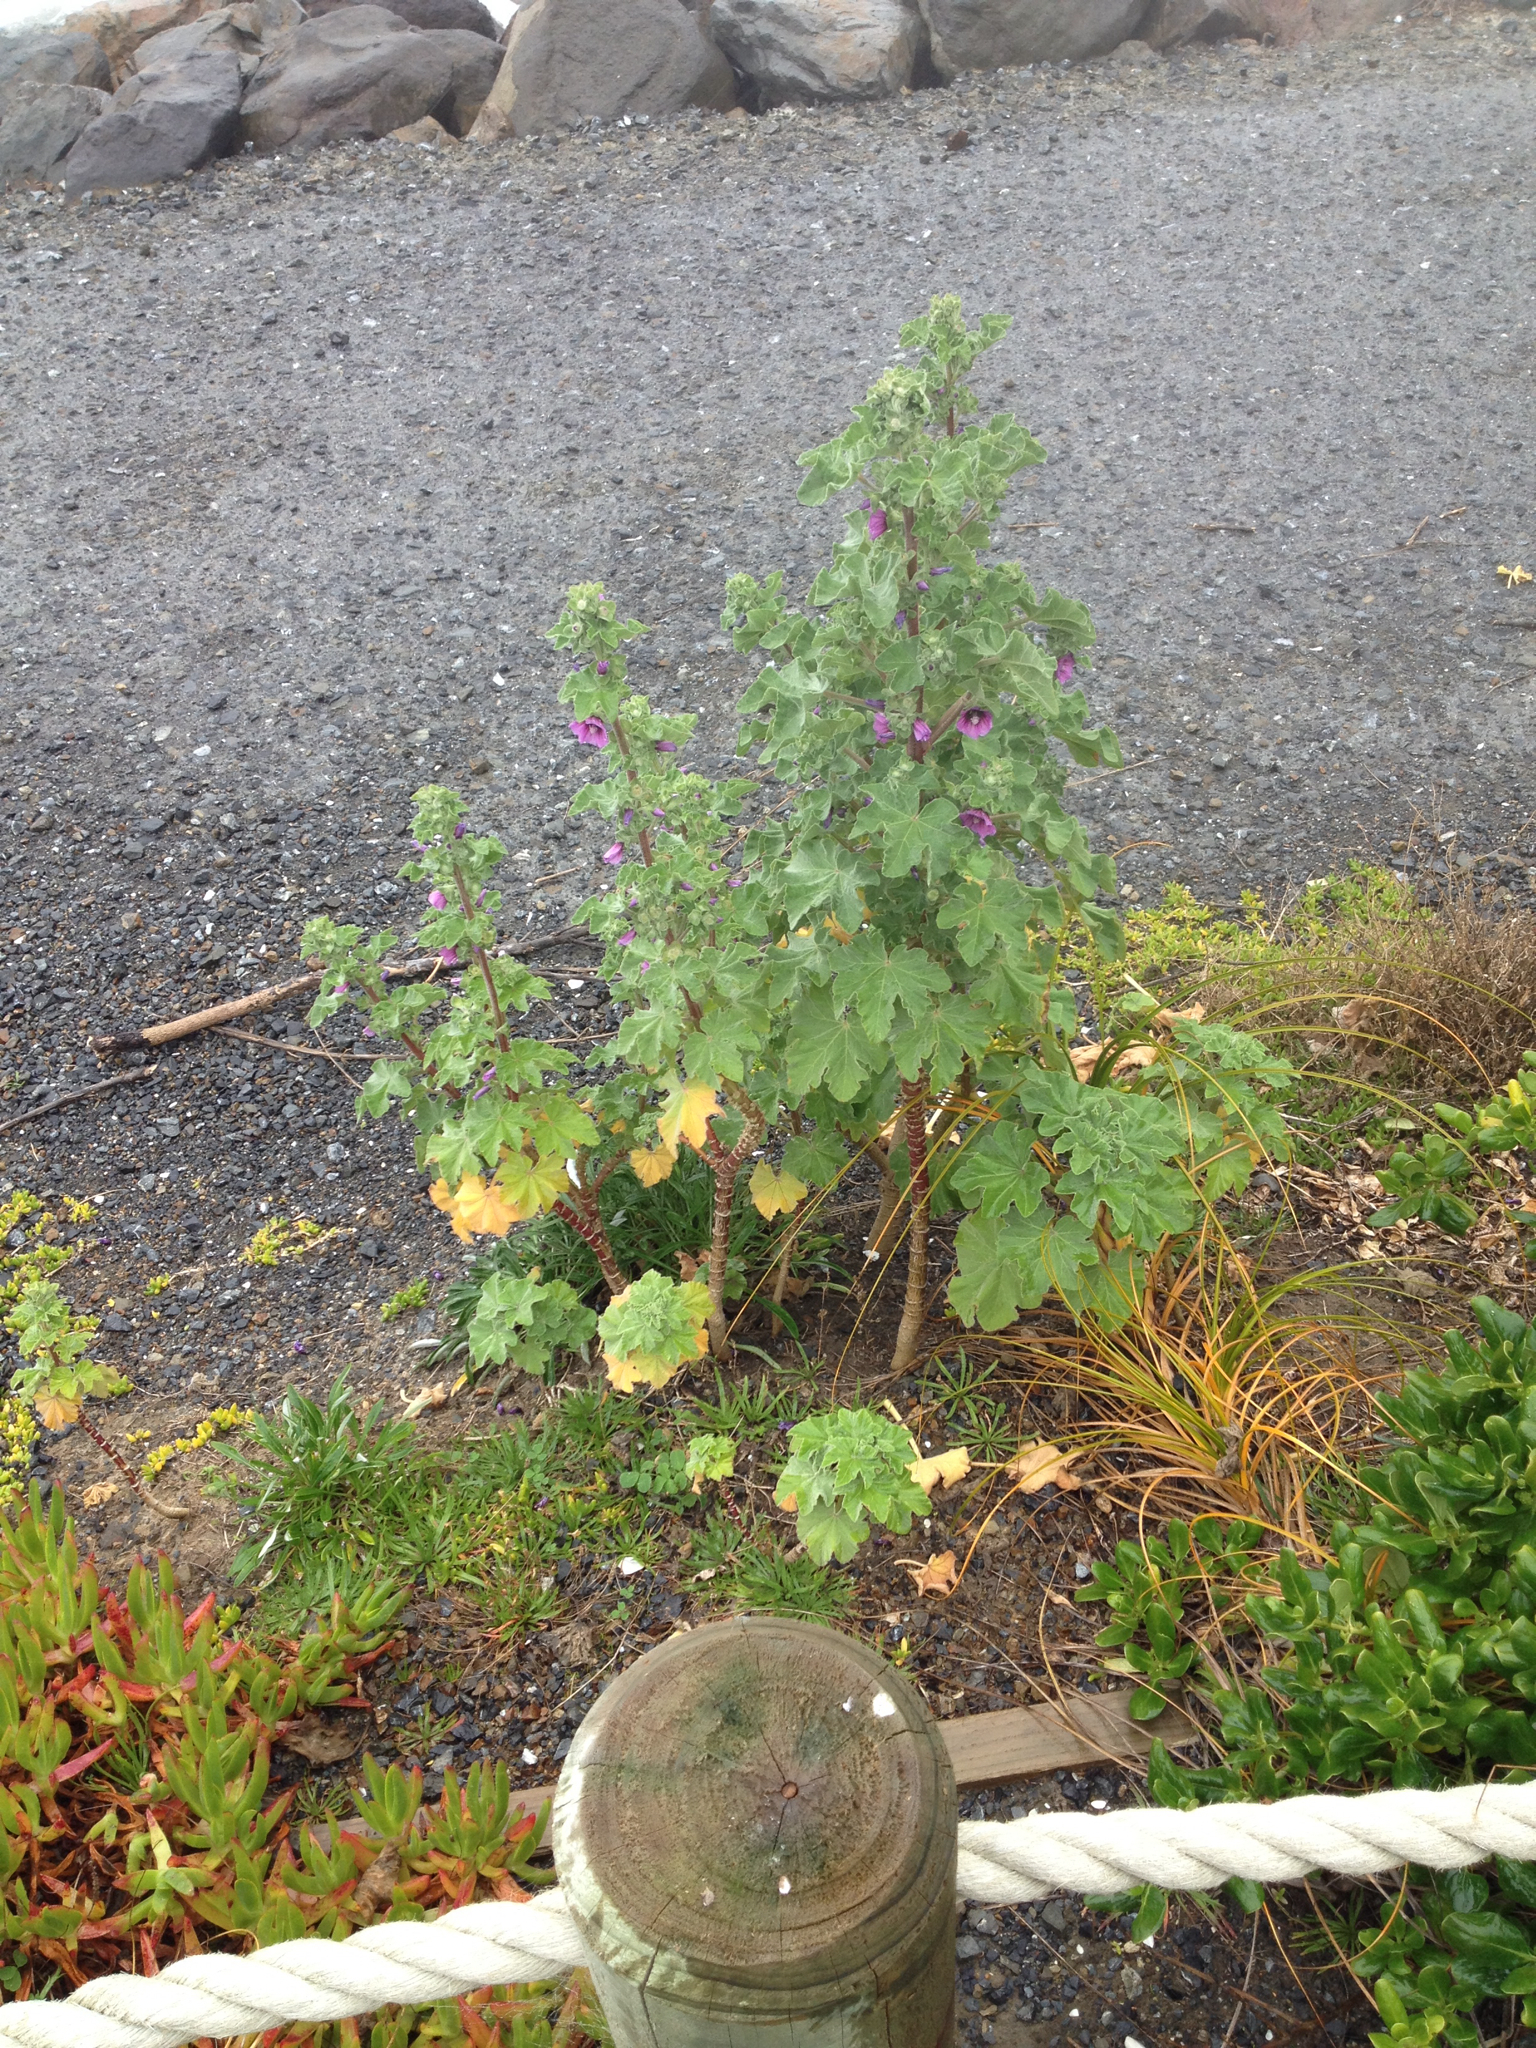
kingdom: Plantae
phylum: Tracheophyta
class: Magnoliopsida
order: Malvales
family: Malvaceae
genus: Malva
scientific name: Malva arborea
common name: Tree mallow
